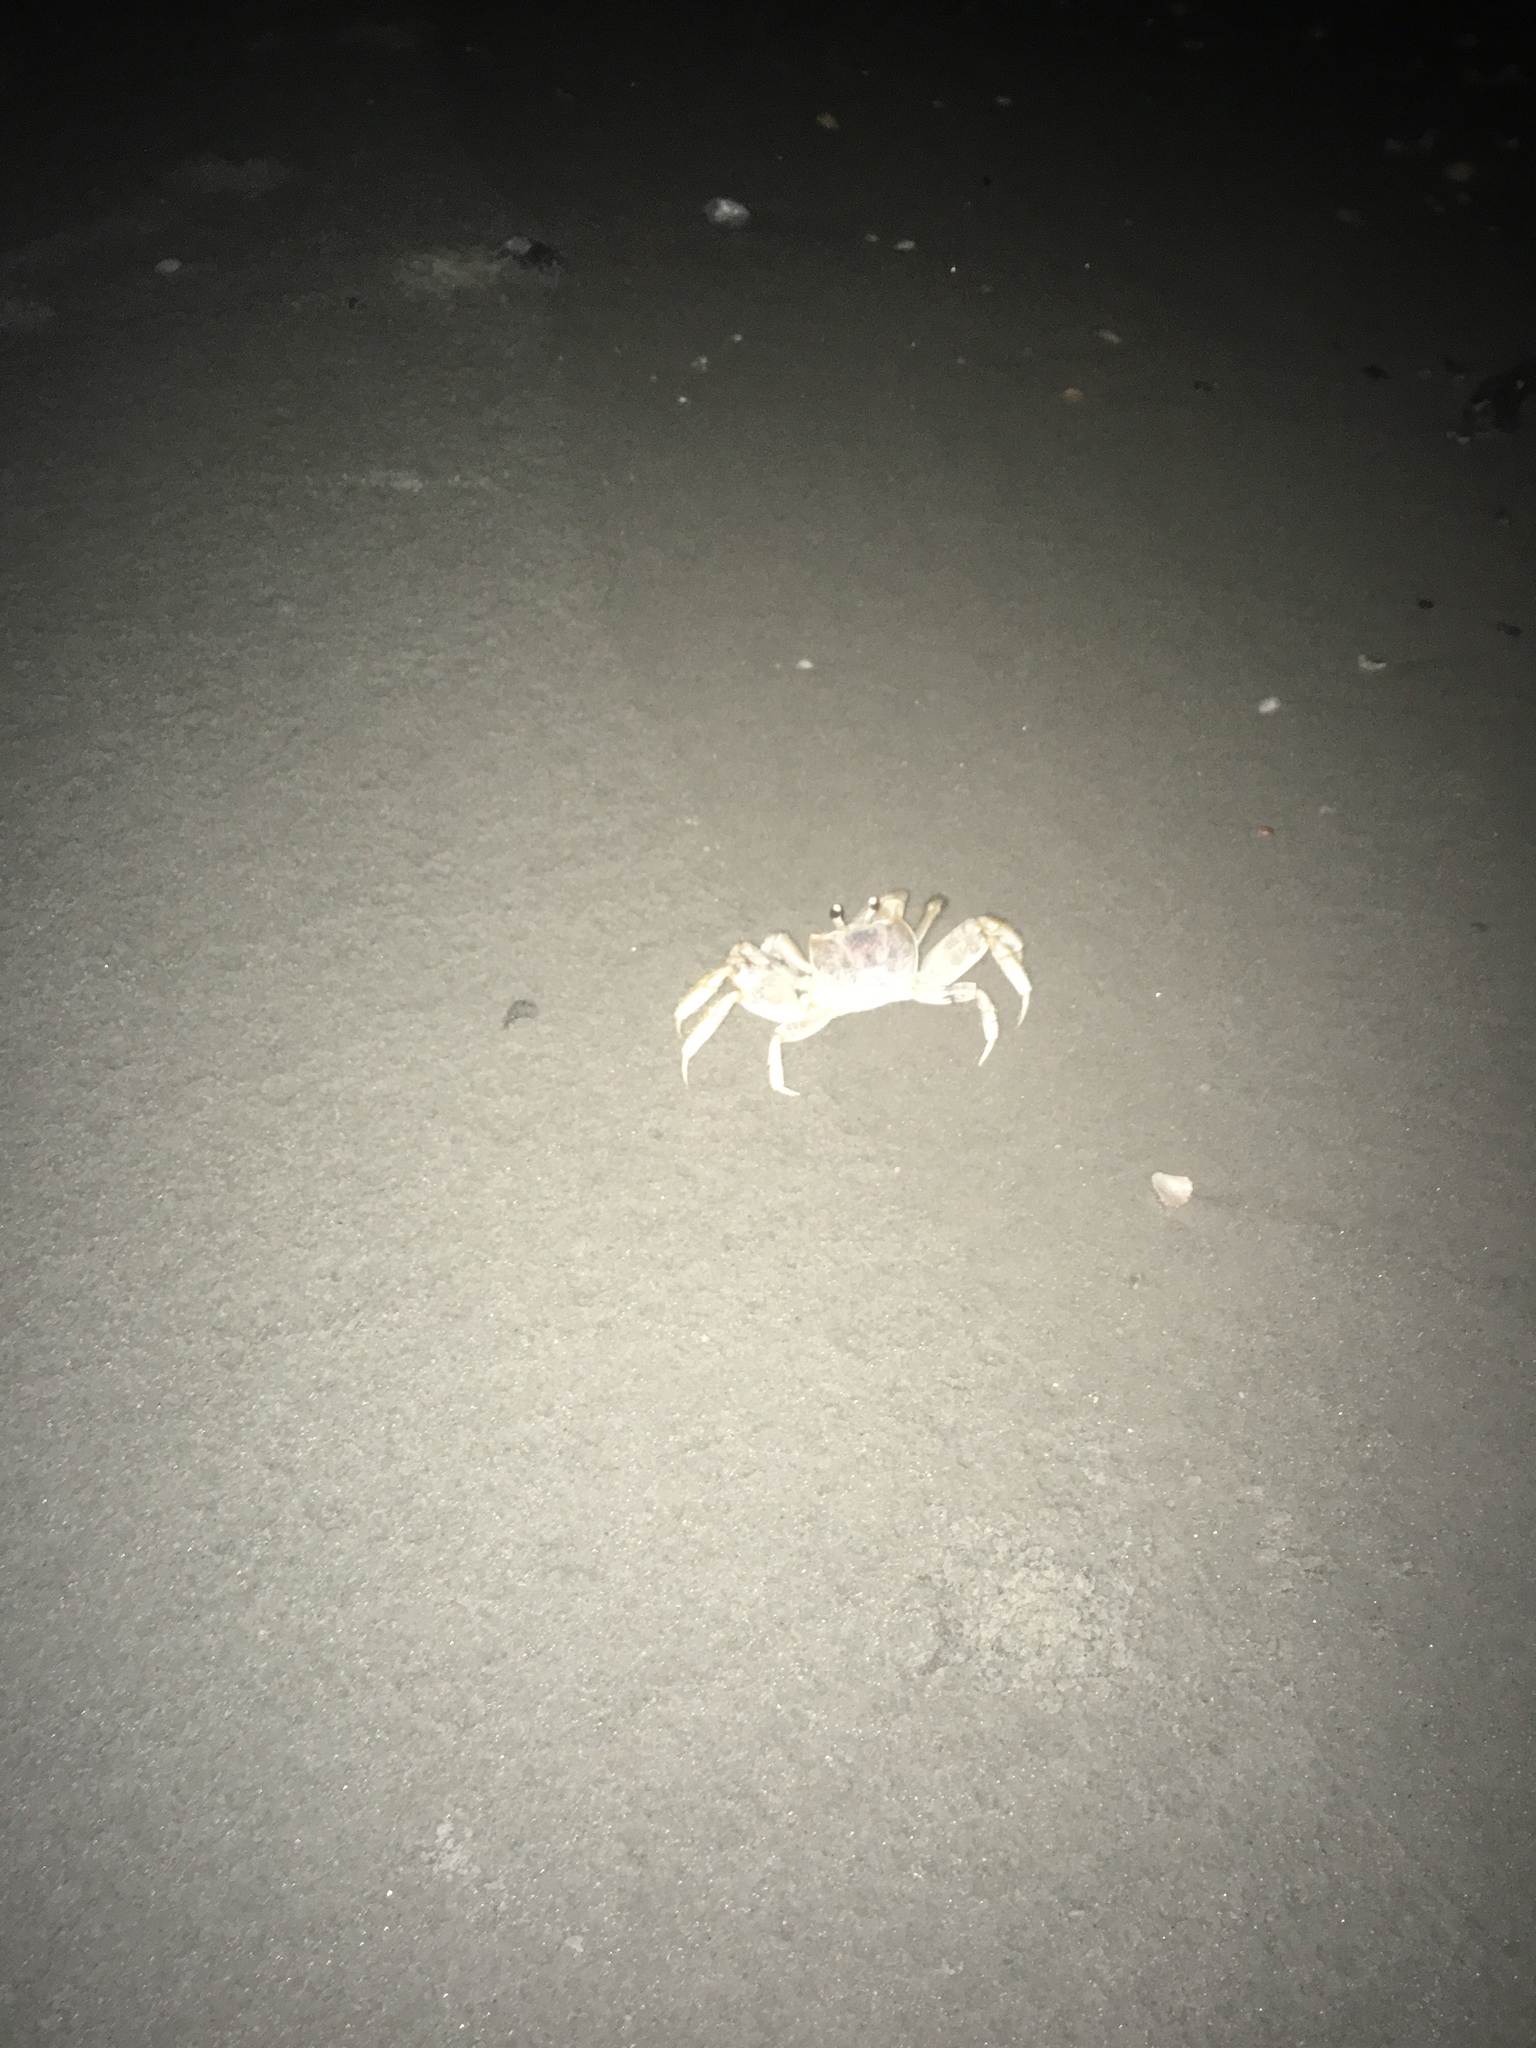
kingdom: Animalia
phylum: Arthropoda
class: Malacostraca
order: Decapoda
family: Ocypodidae
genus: Ocypode
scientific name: Ocypode quadrata
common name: Ghost crab
